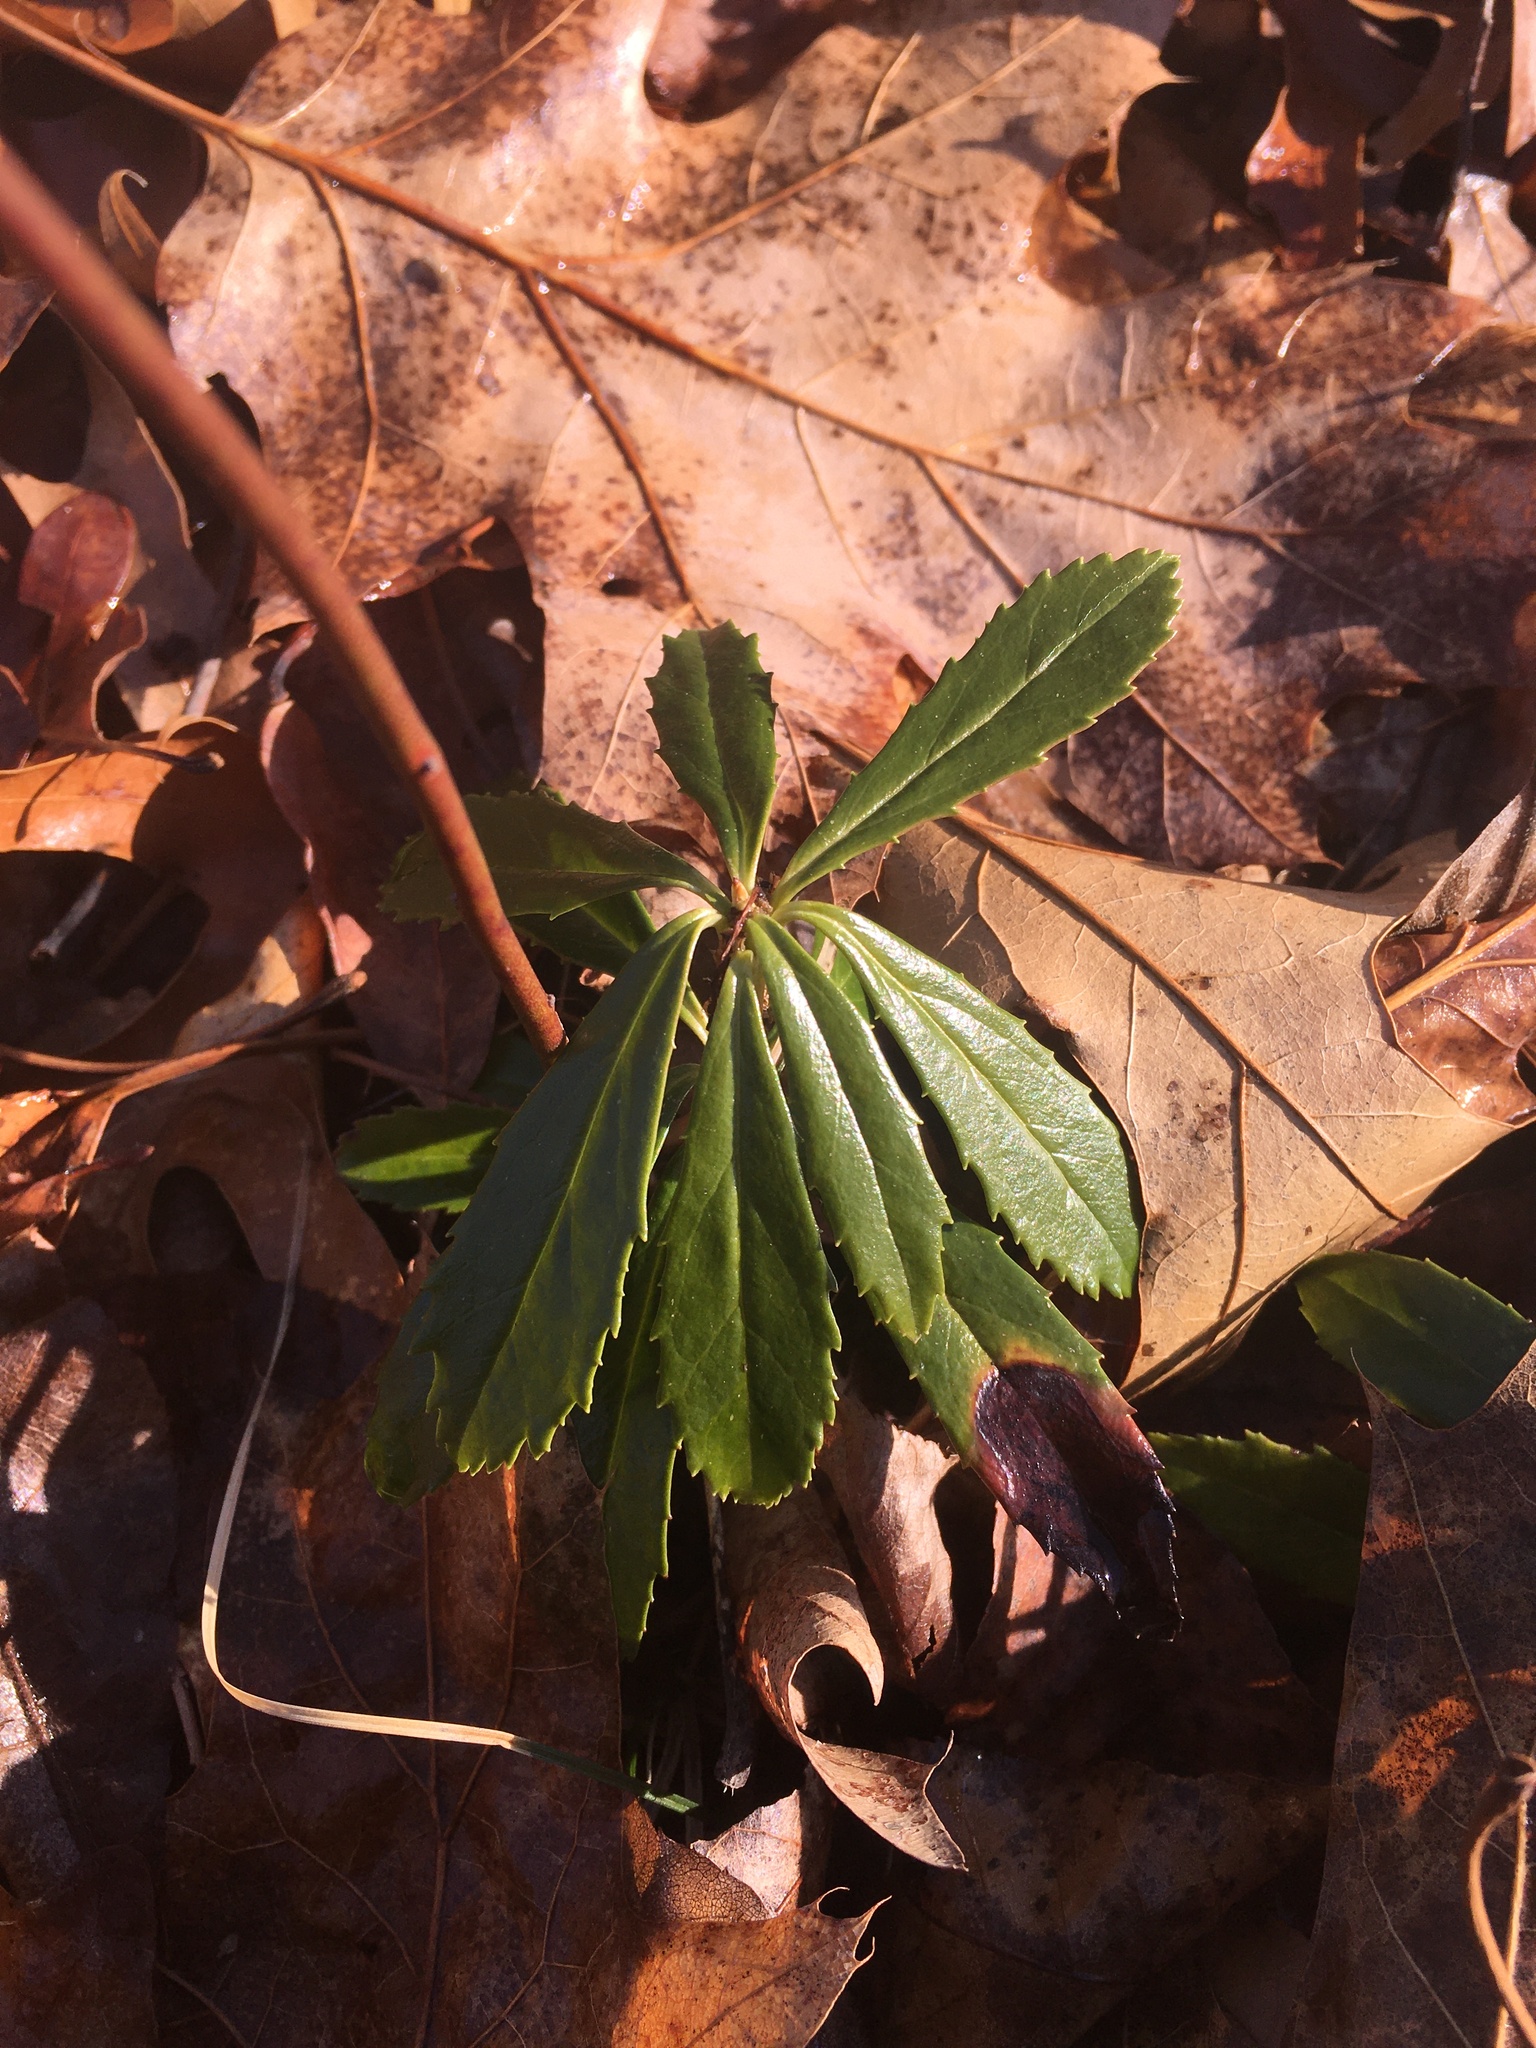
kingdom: Plantae
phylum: Tracheophyta
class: Magnoliopsida
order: Ericales
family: Ericaceae
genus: Chimaphila
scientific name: Chimaphila umbellata
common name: Pipsissewa
